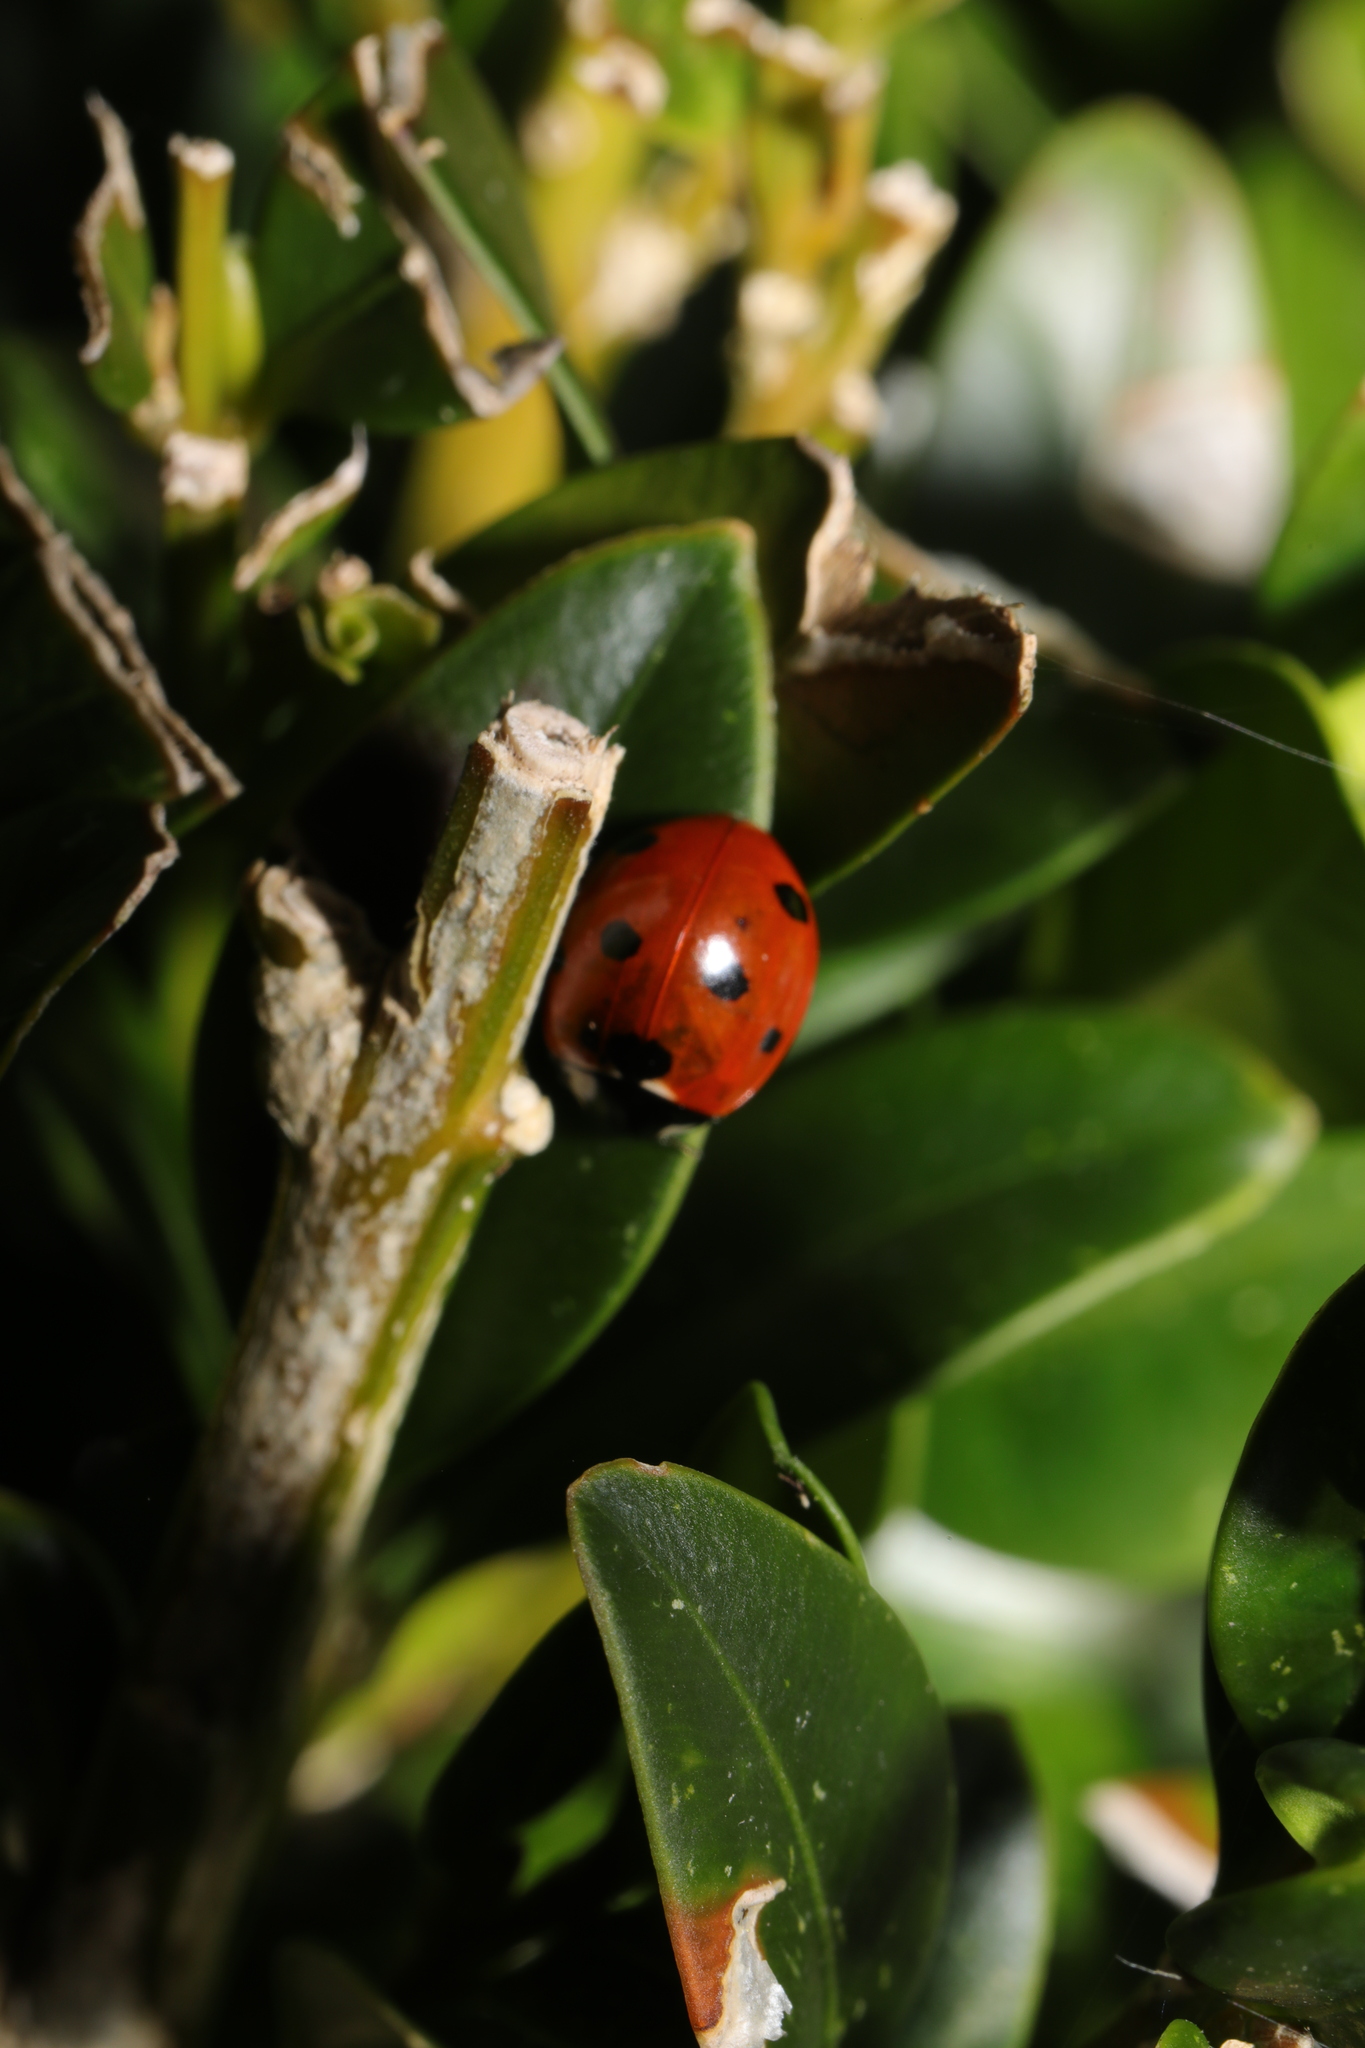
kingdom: Animalia
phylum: Arthropoda
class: Insecta
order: Coleoptera
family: Coccinellidae
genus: Coccinella
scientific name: Coccinella septempunctata
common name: Sevenspotted lady beetle
